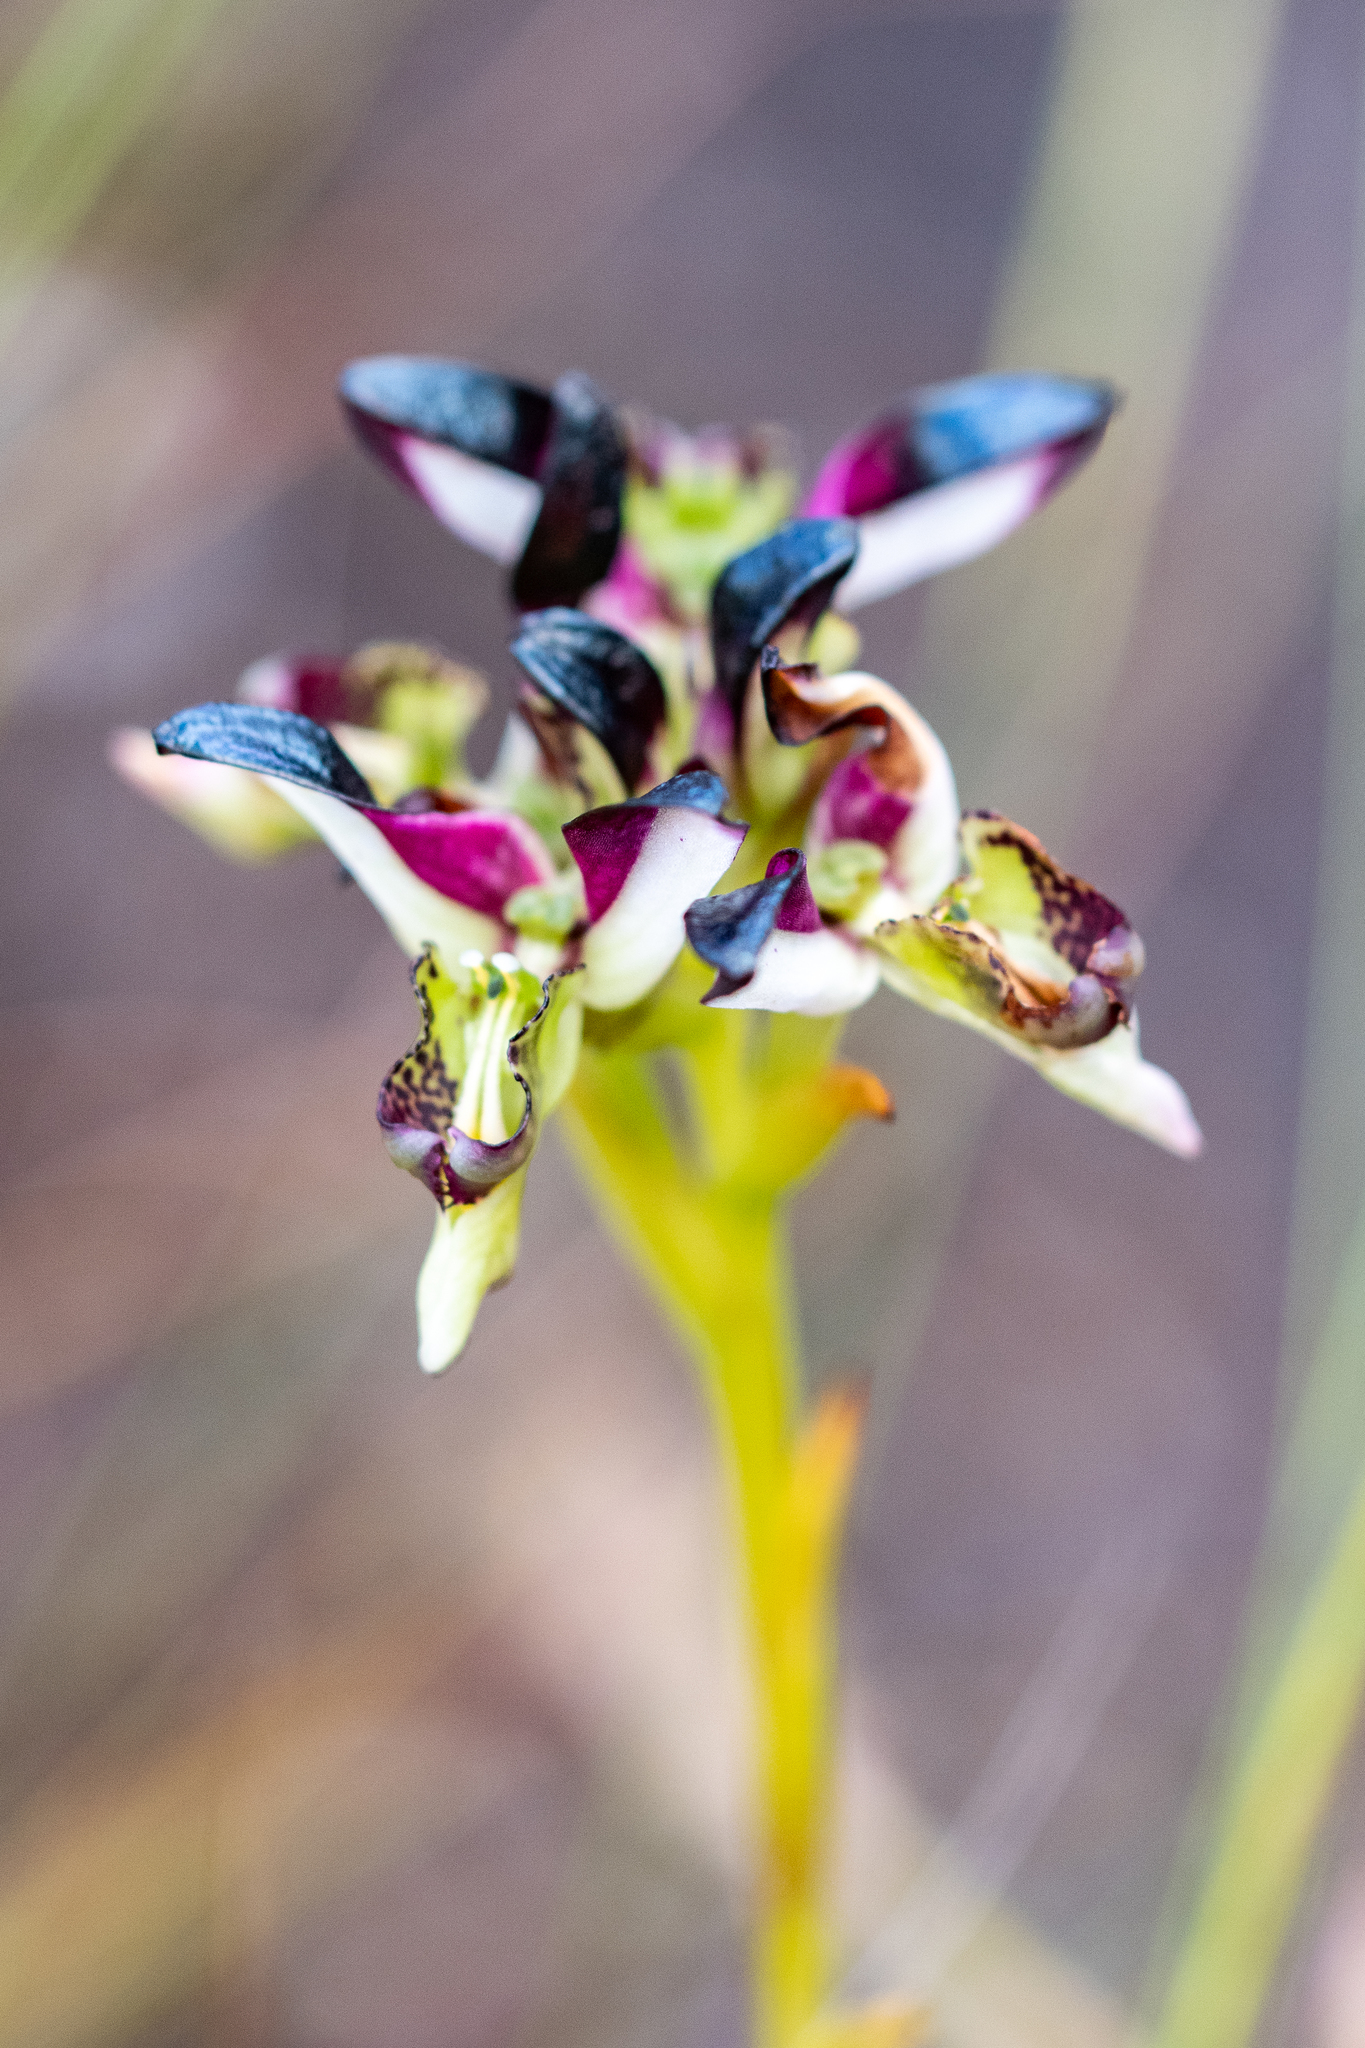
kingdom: Plantae
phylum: Tracheophyta
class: Liliopsida
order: Asparagales
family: Orchidaceae
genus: Disa
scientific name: Disa atricapilla
